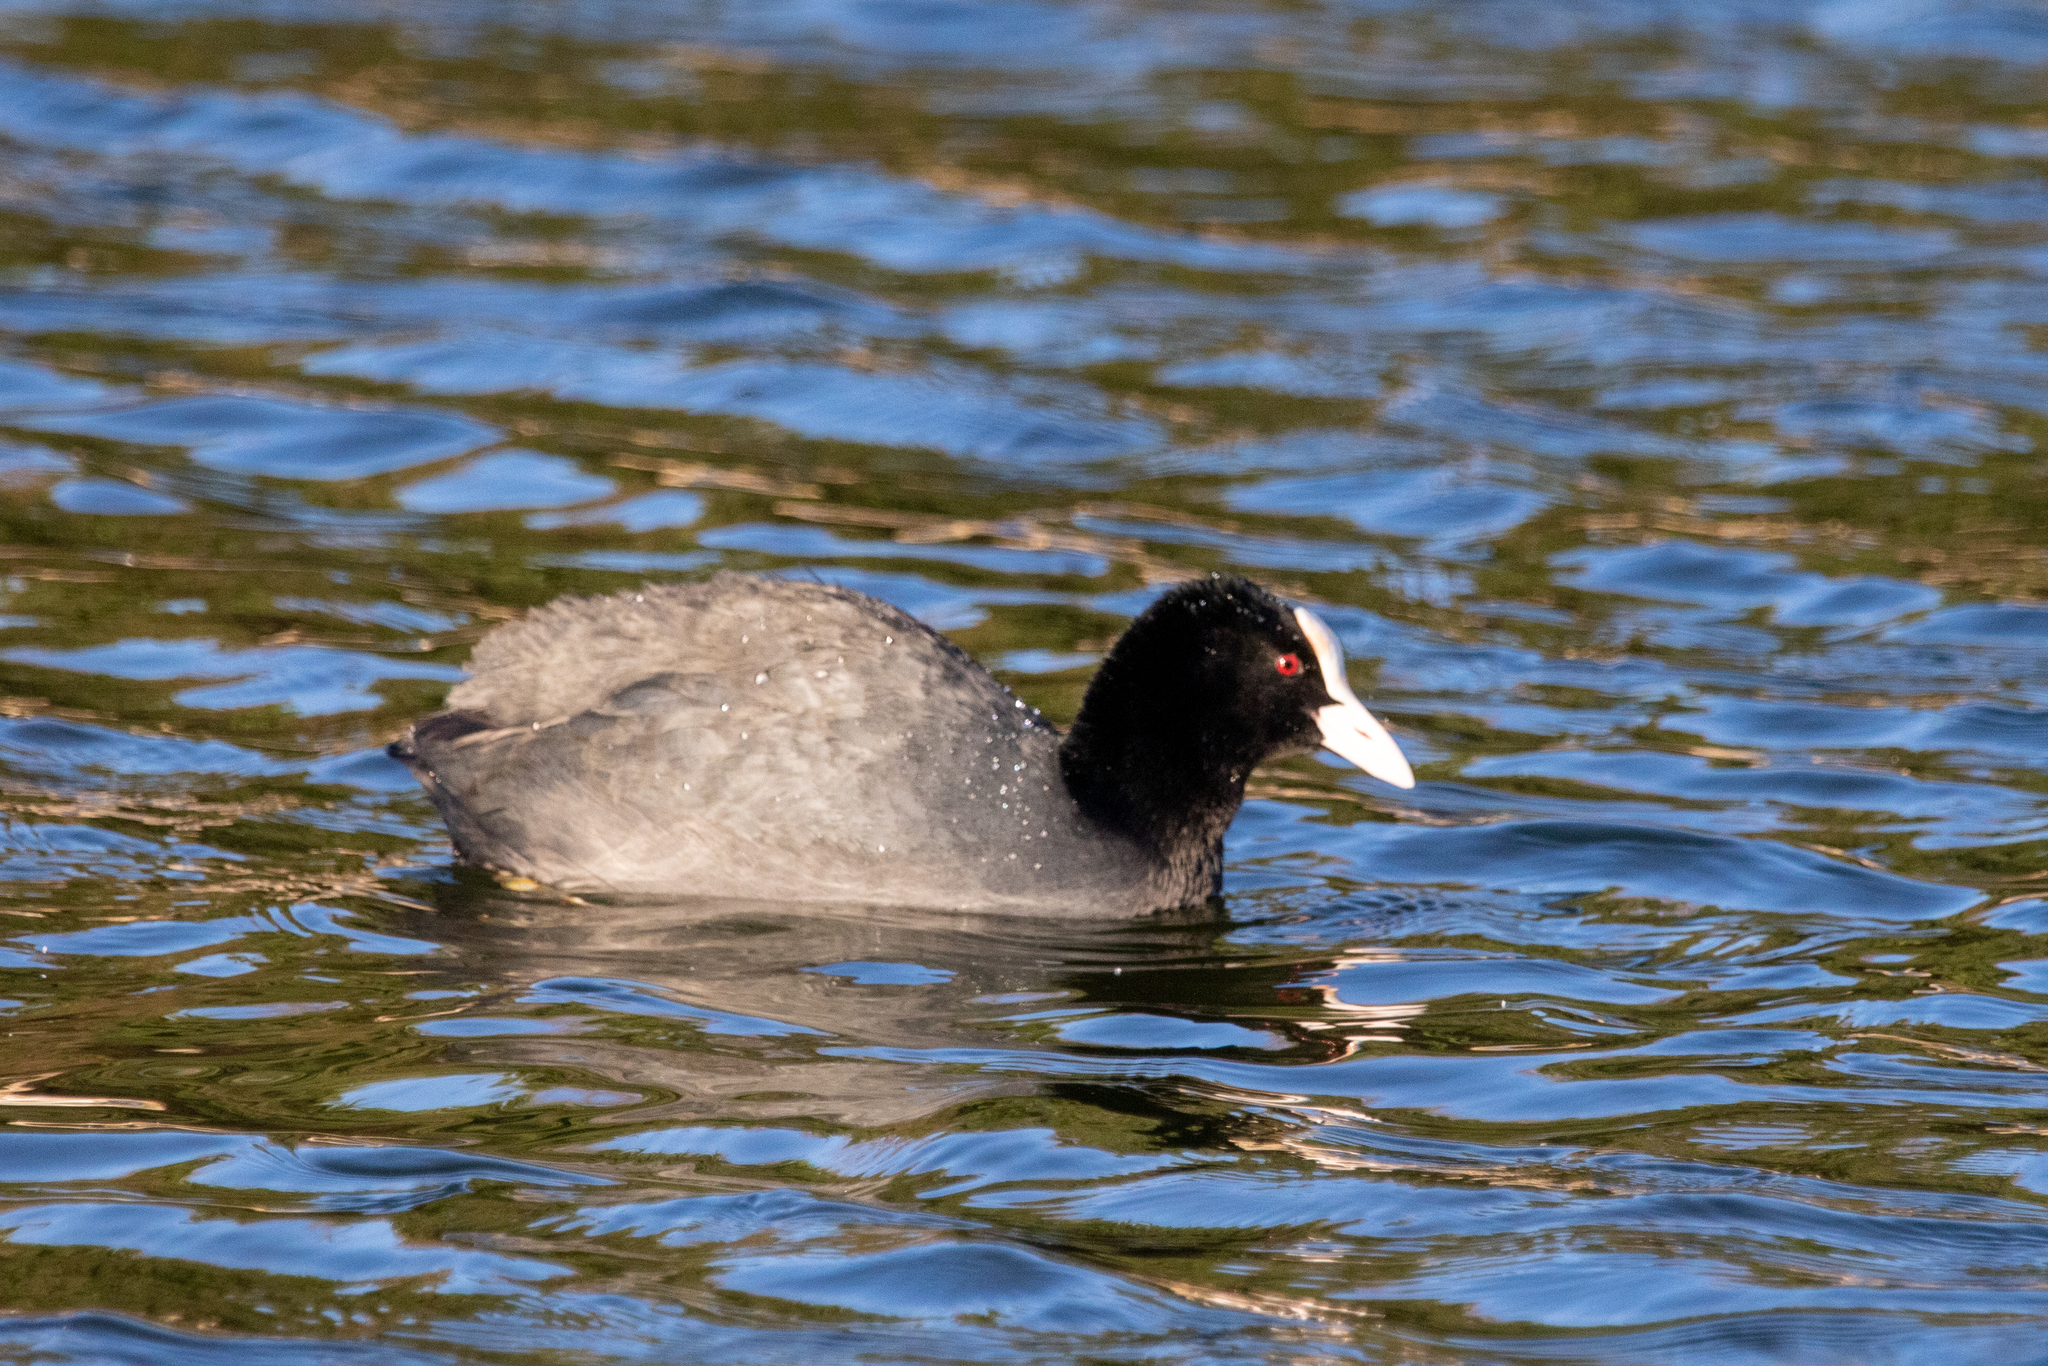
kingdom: Animalia
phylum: Chordata
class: Aves
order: Gruiformes
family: Rallidae
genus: Fulica
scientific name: Fulica atra
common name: Eurasian coot
